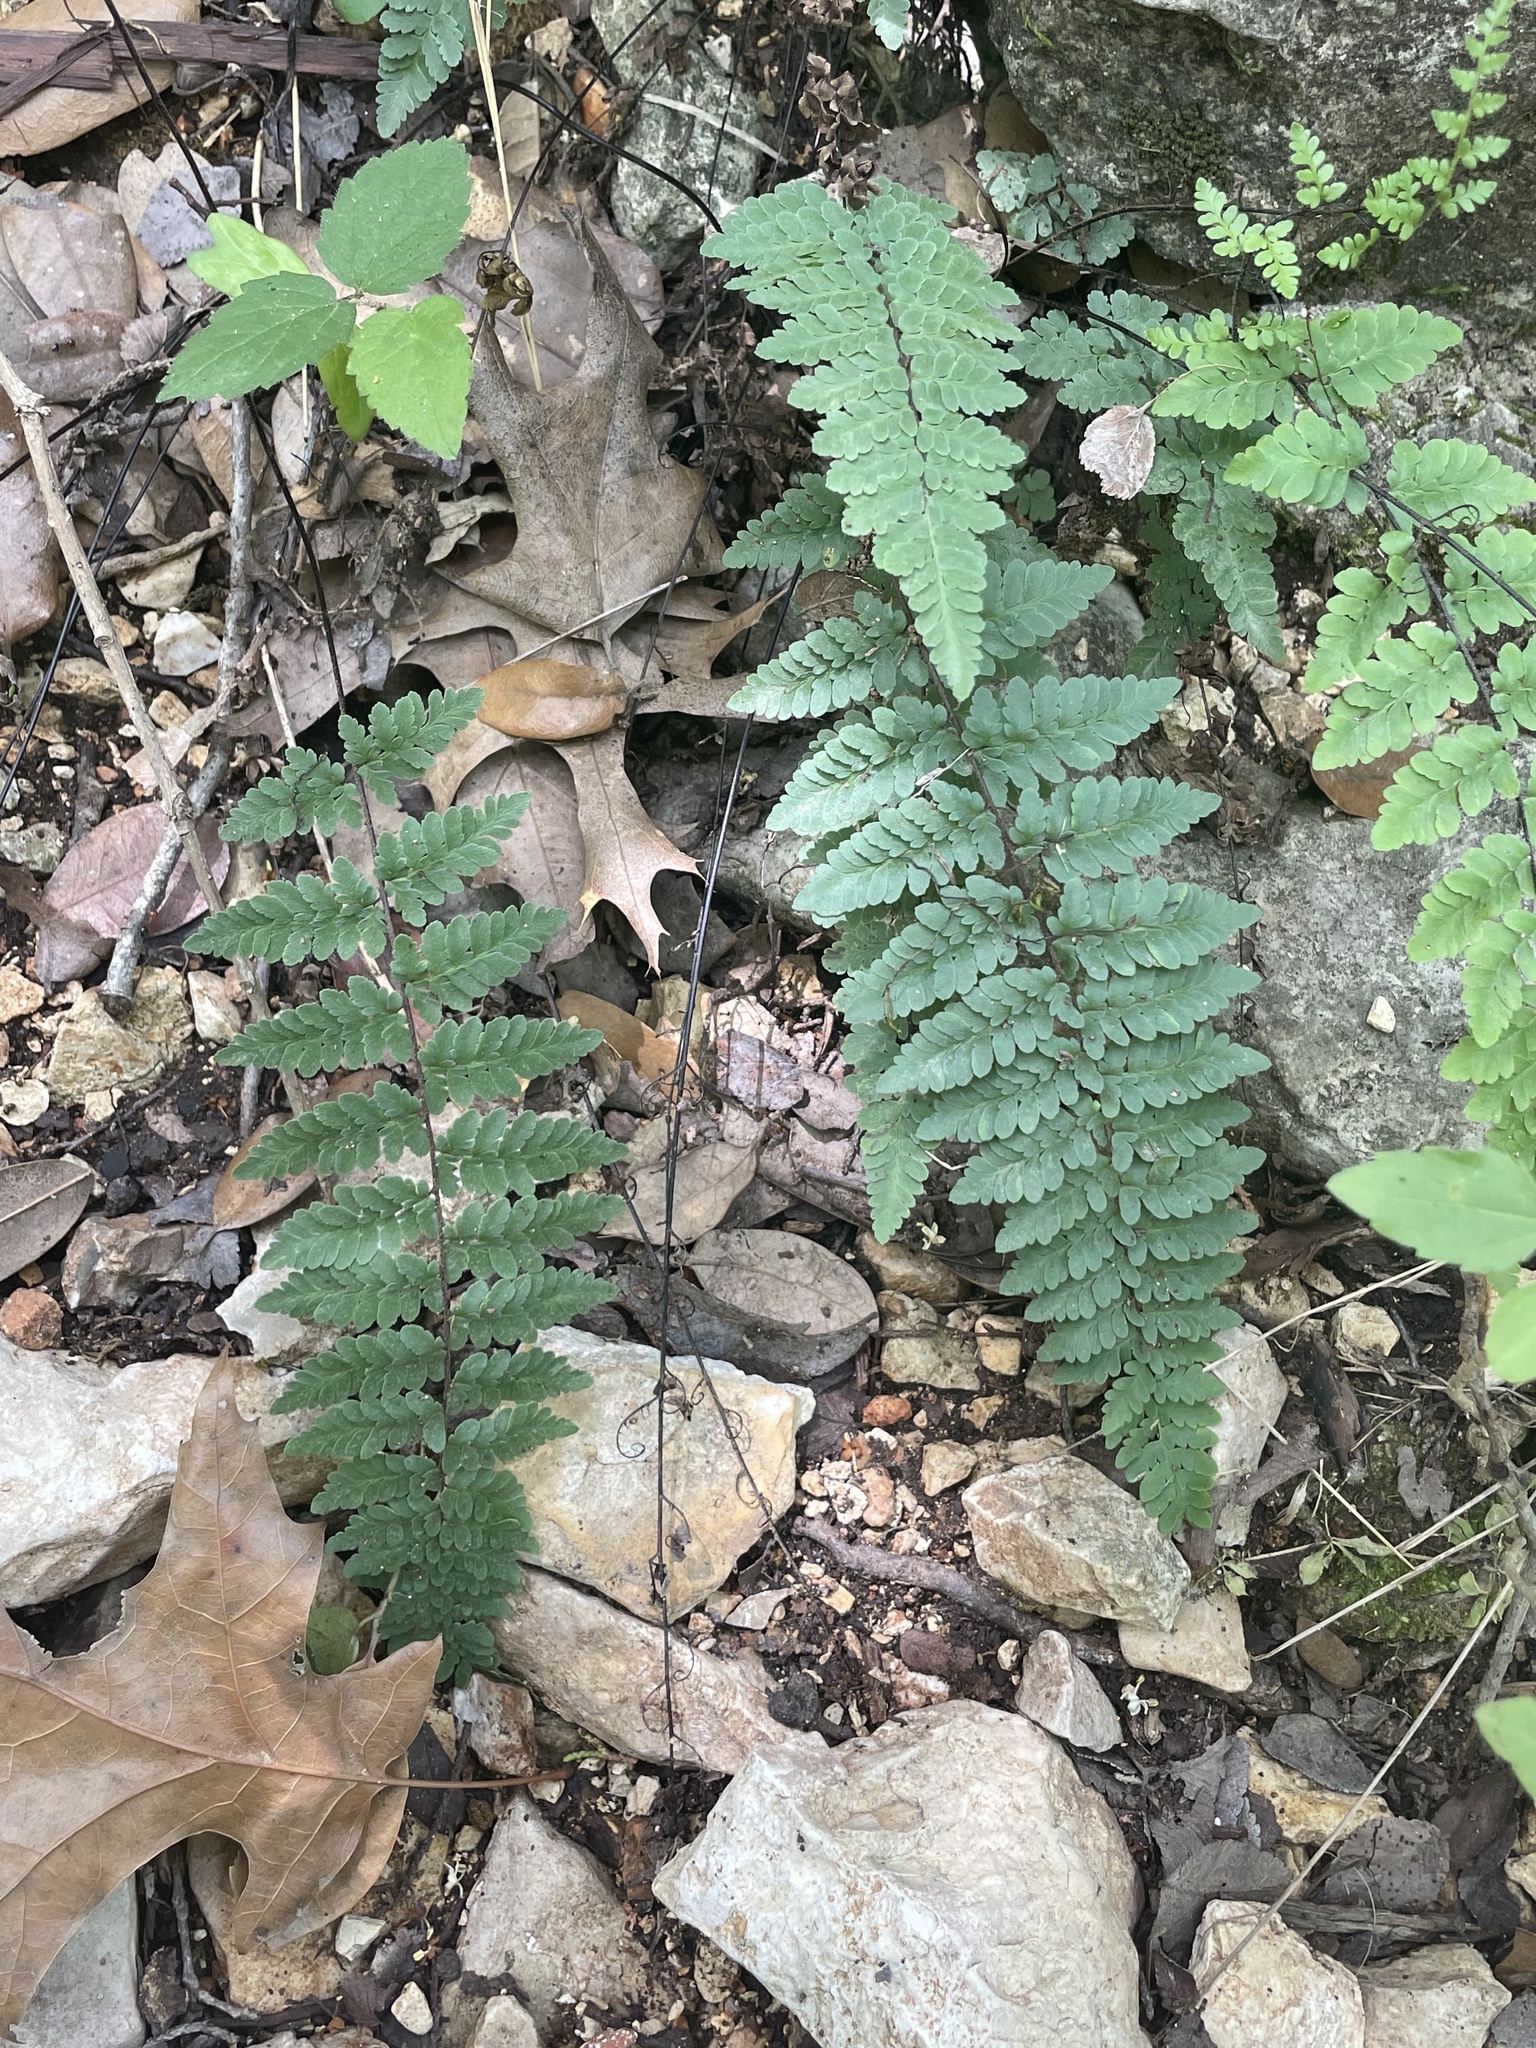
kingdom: Plantae
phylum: Tracheophyta
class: Polypodiopsida
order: Polypodiales
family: Pteridaceae
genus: Myriopteris
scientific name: Myriopteris alabamensis
